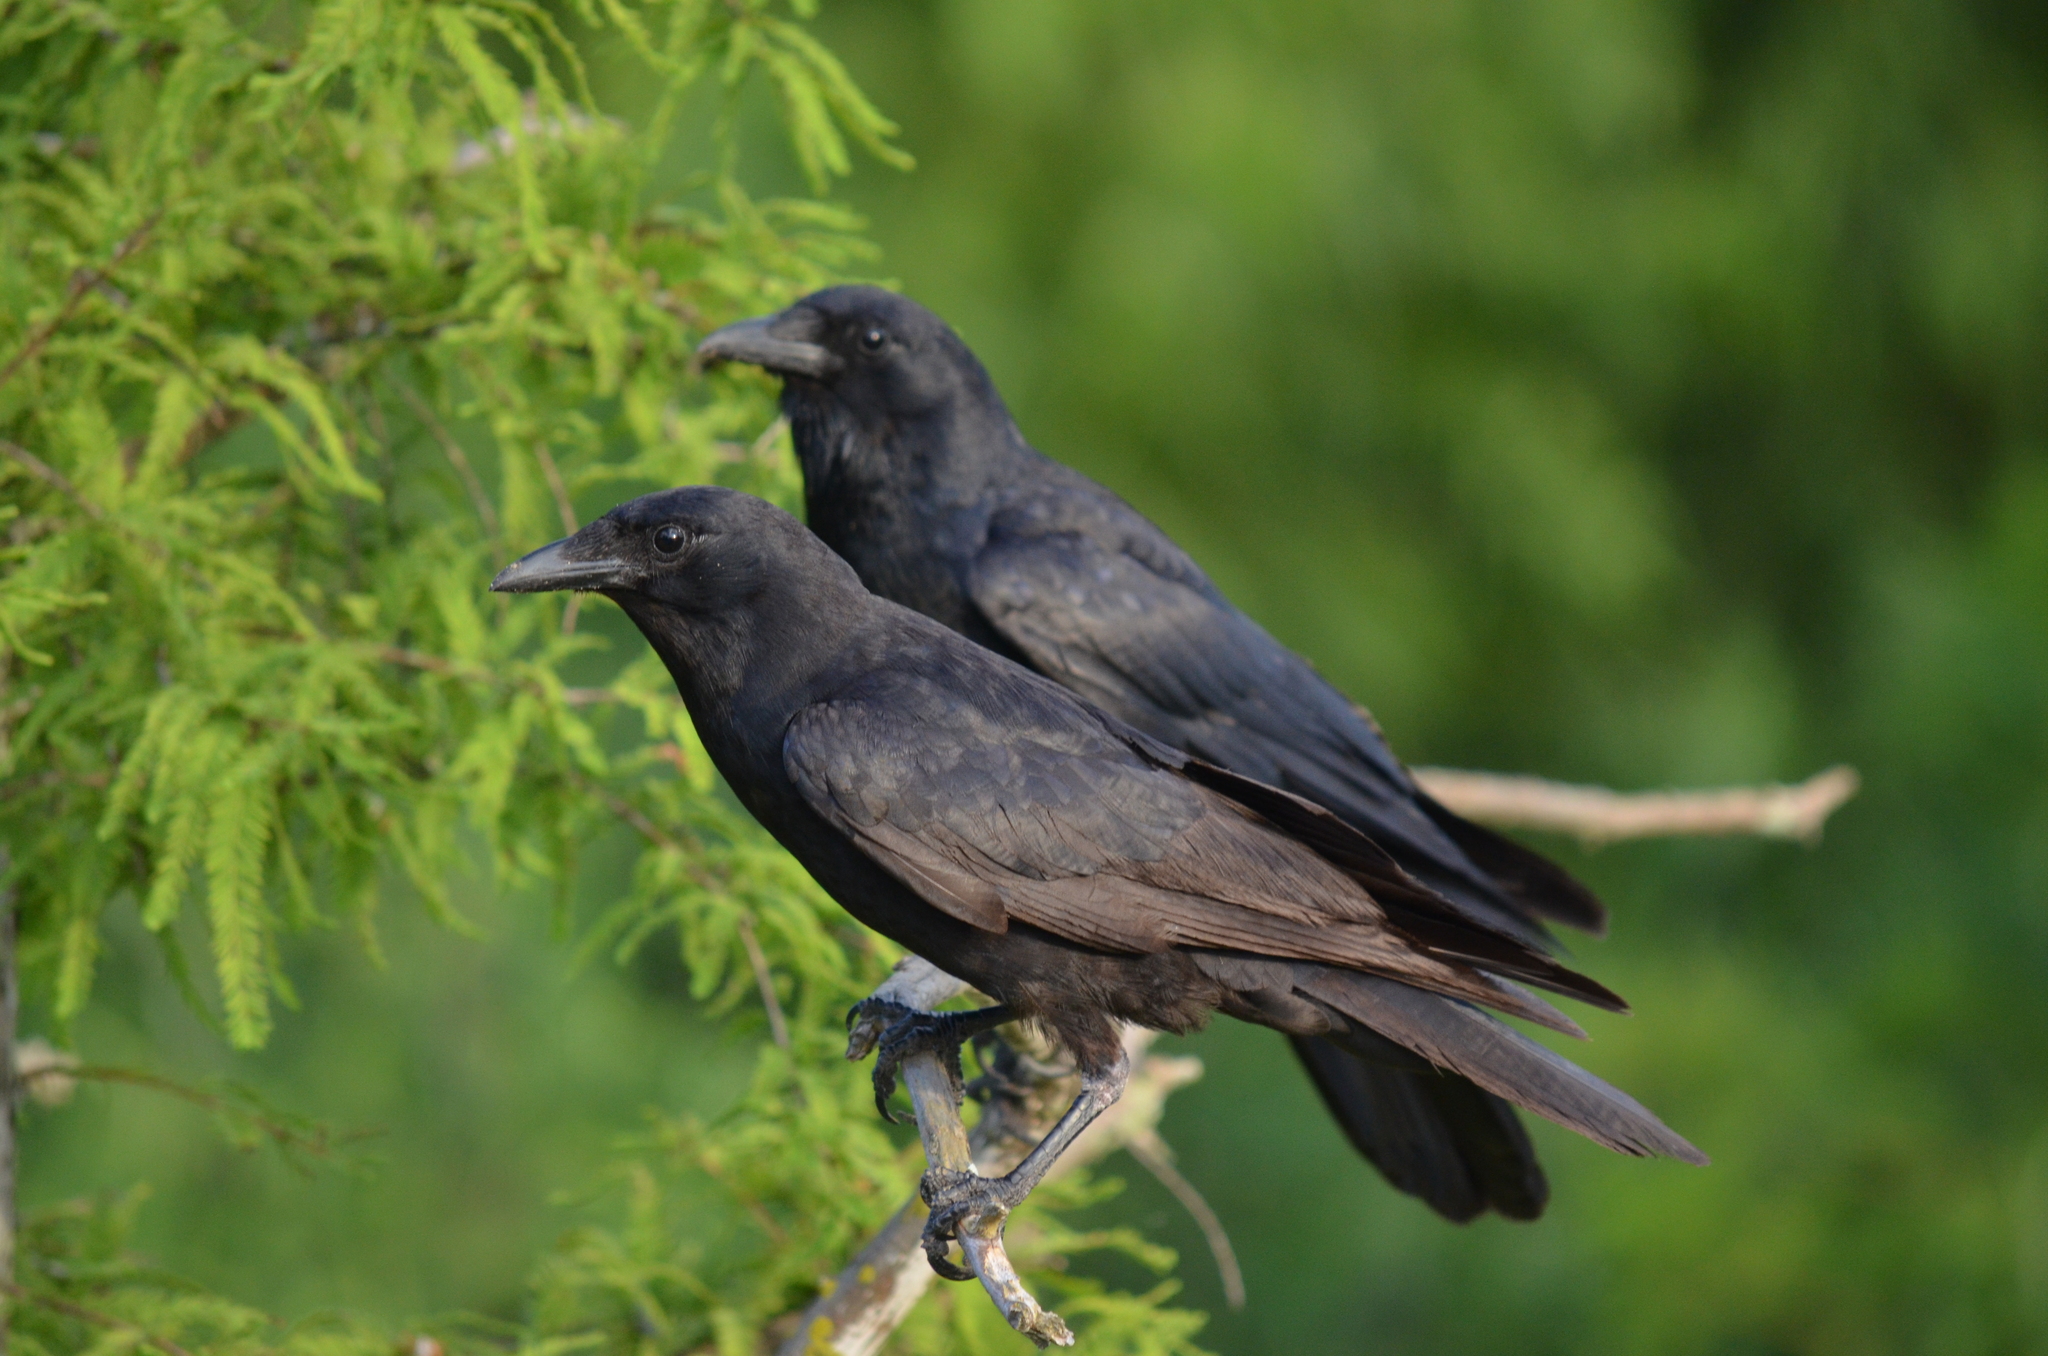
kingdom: Animalia
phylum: Chordata
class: Aves
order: Passeriformes
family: Corvidae
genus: Corvus
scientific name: Corvus brachyrhynchos
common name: American crow
